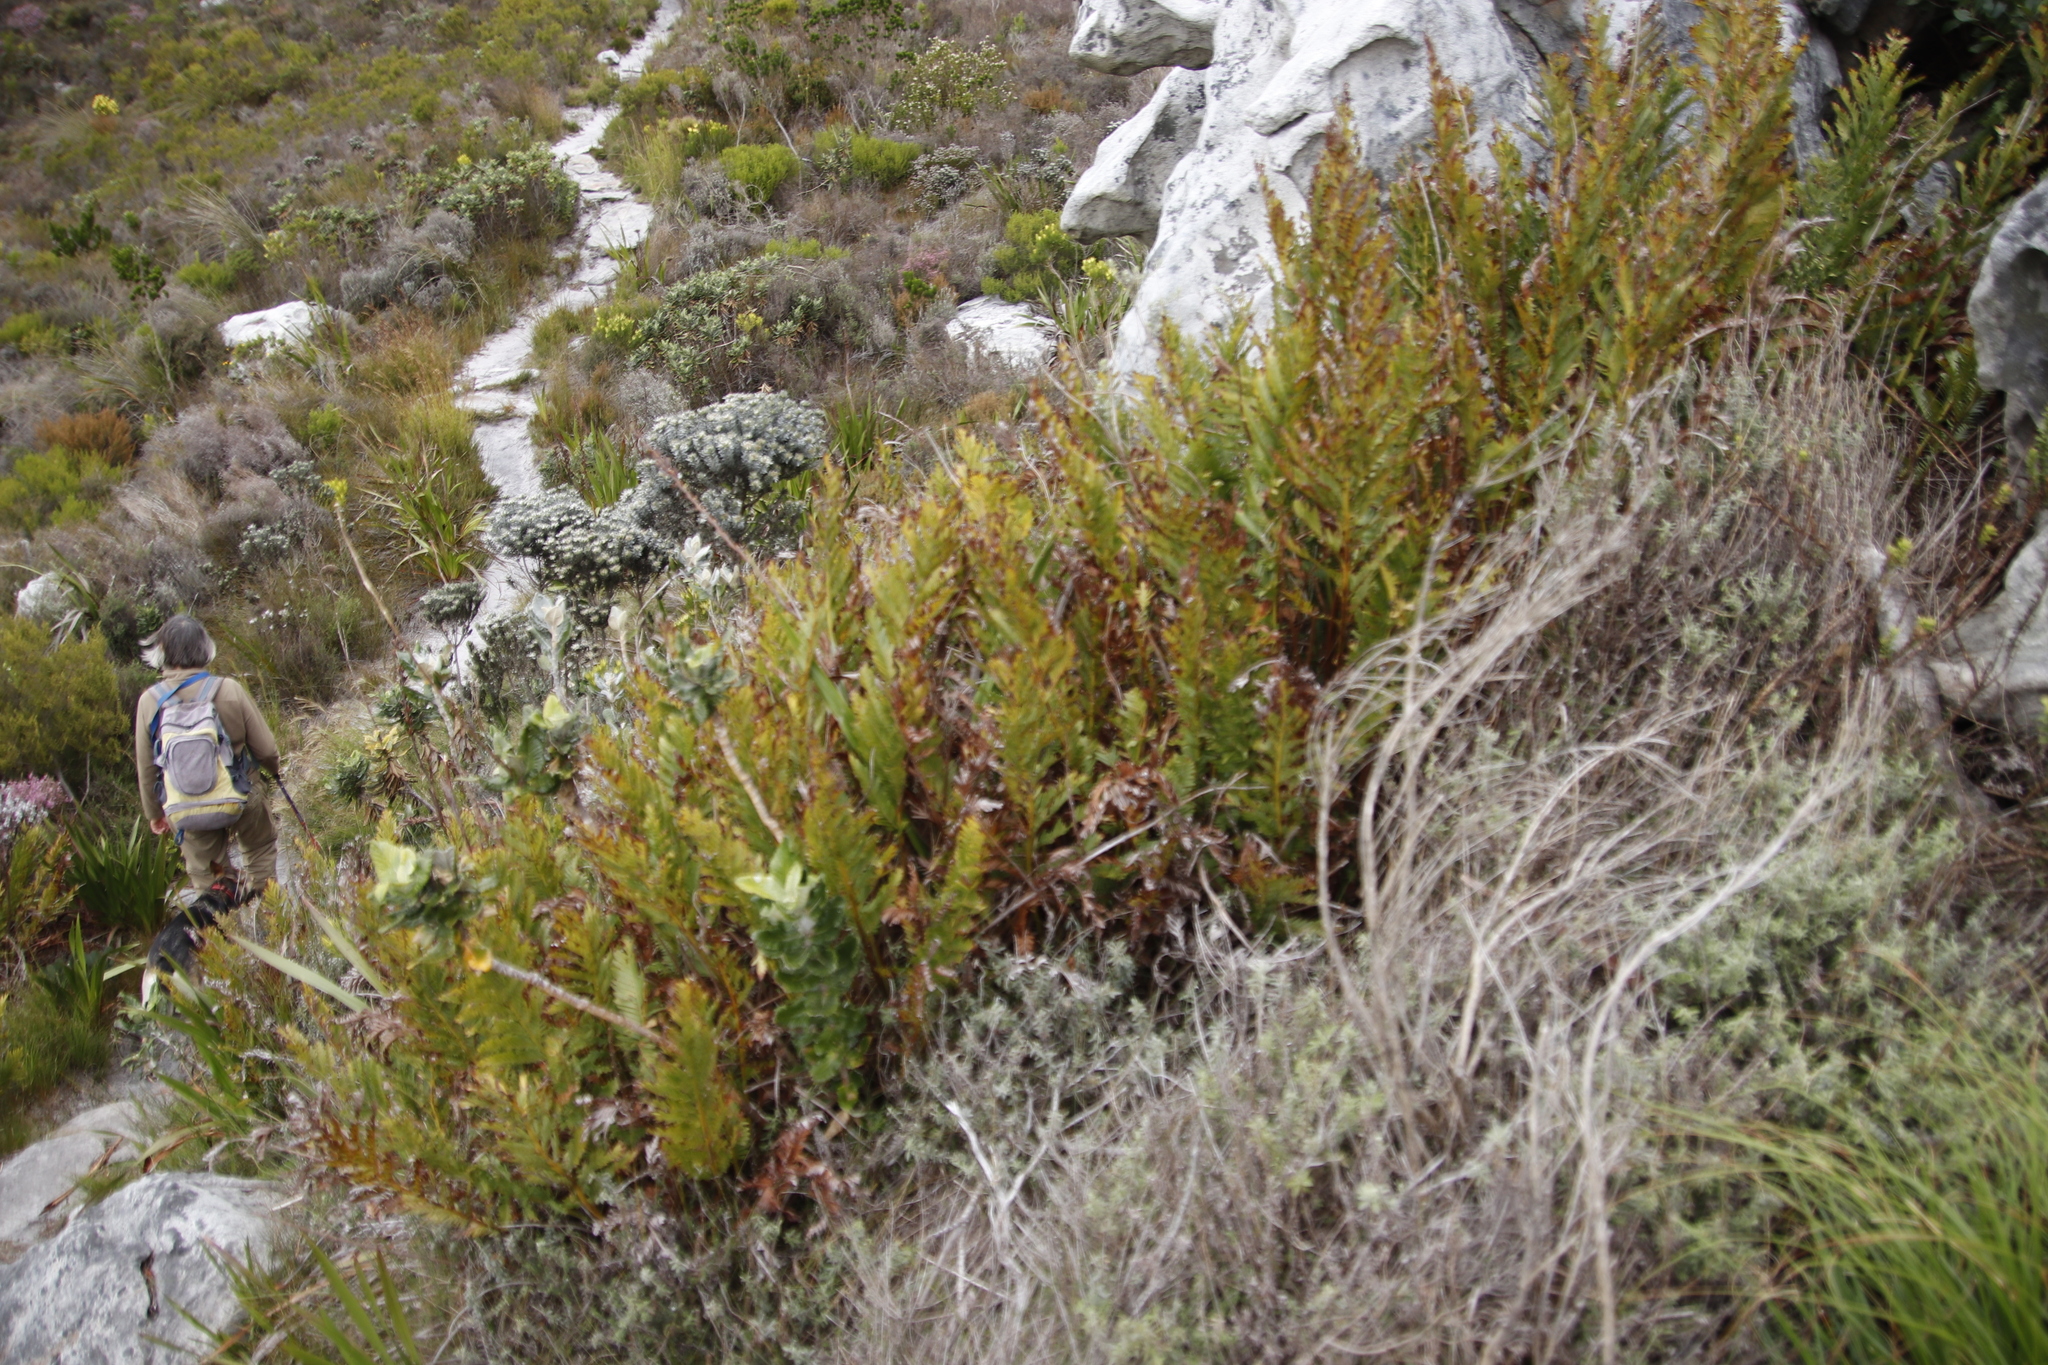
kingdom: Plantae
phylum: Tracheophyta
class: Polypodiopsida
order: Osmundales
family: Osmundaceae
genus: Todea
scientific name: Todea barbara
